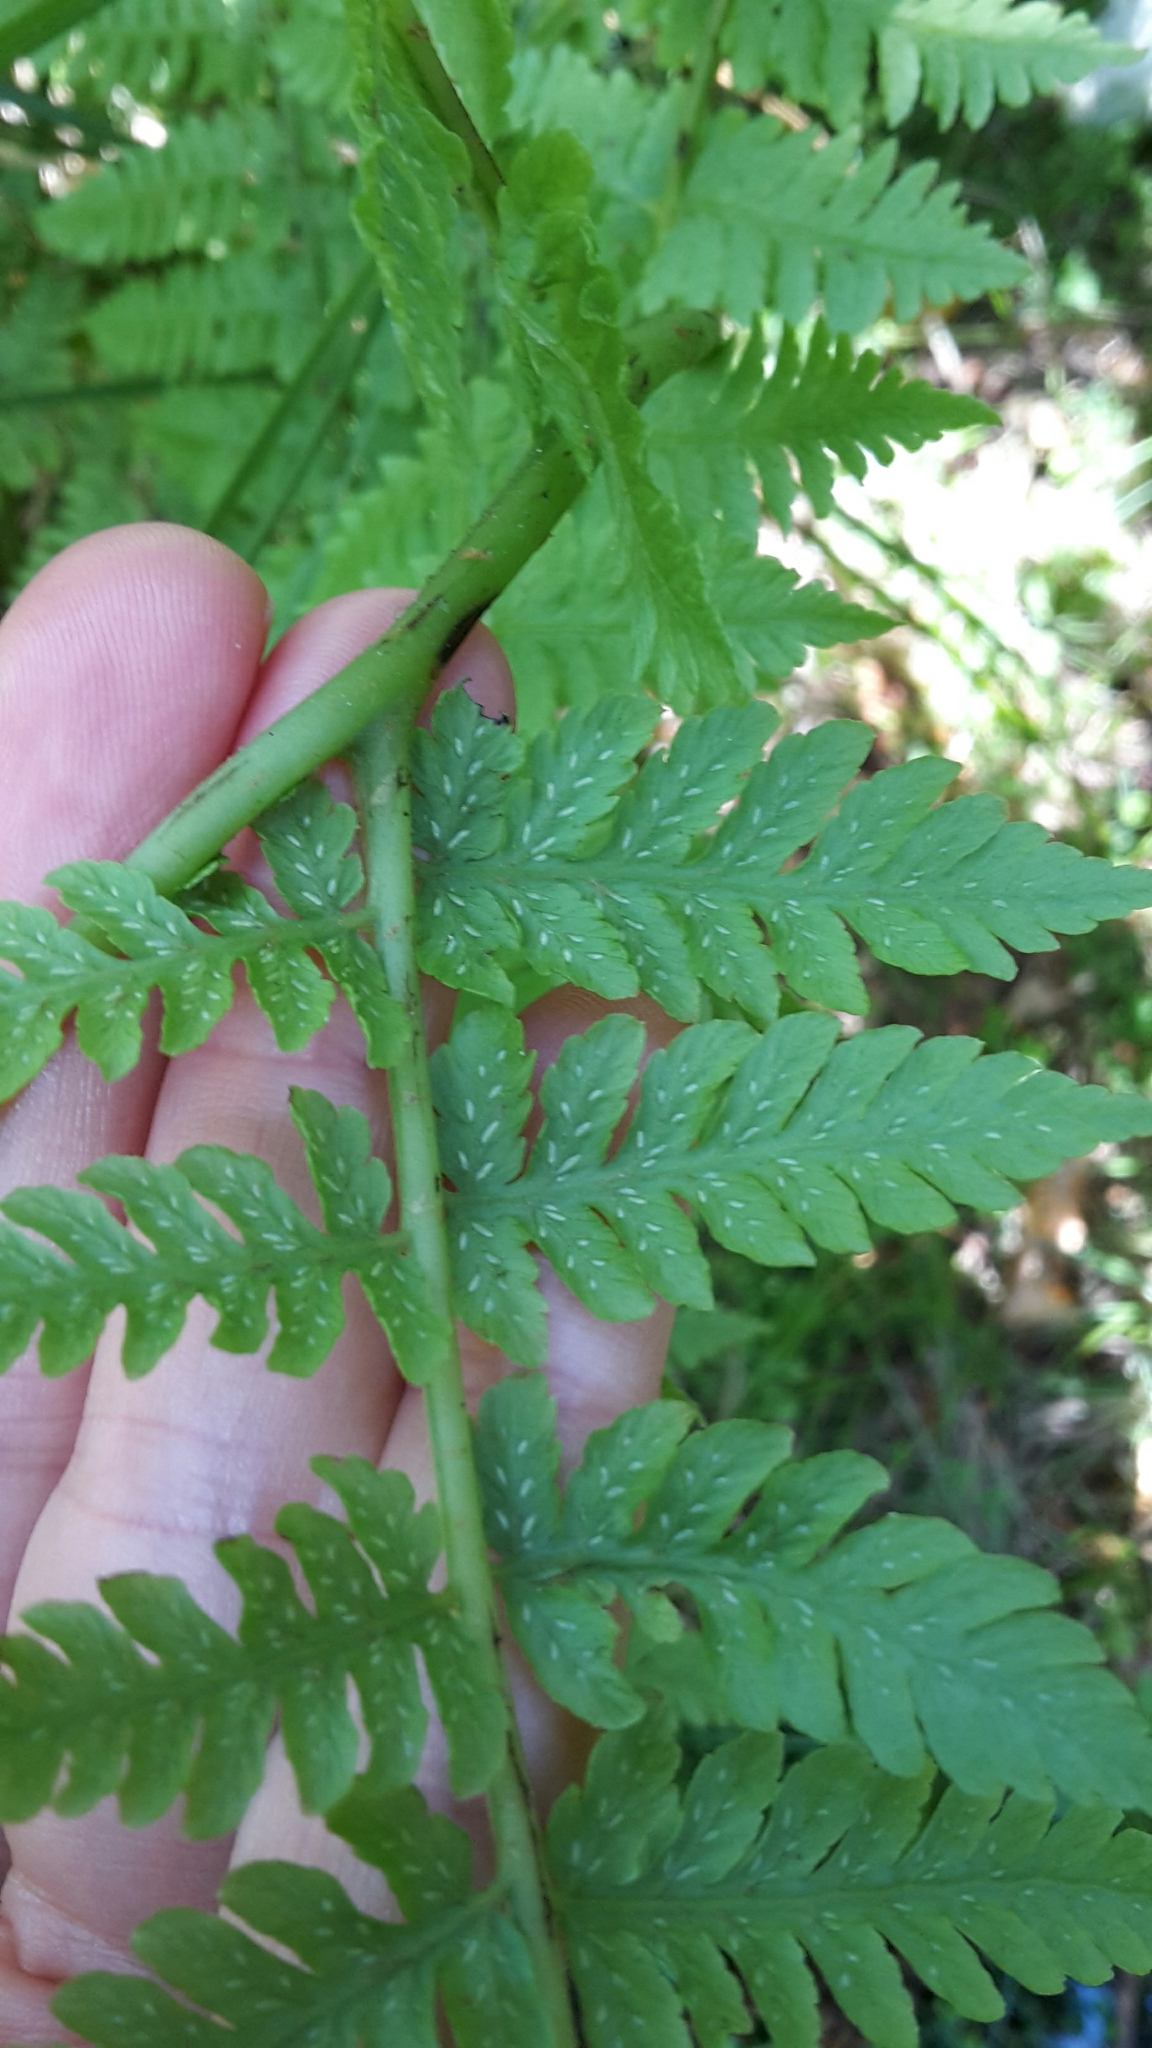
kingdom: Plantae
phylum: Tracheophyta
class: Polypodiopsida
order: Polypodiales
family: Athyriaceae
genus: Diplazium
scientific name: Diplazium australe
